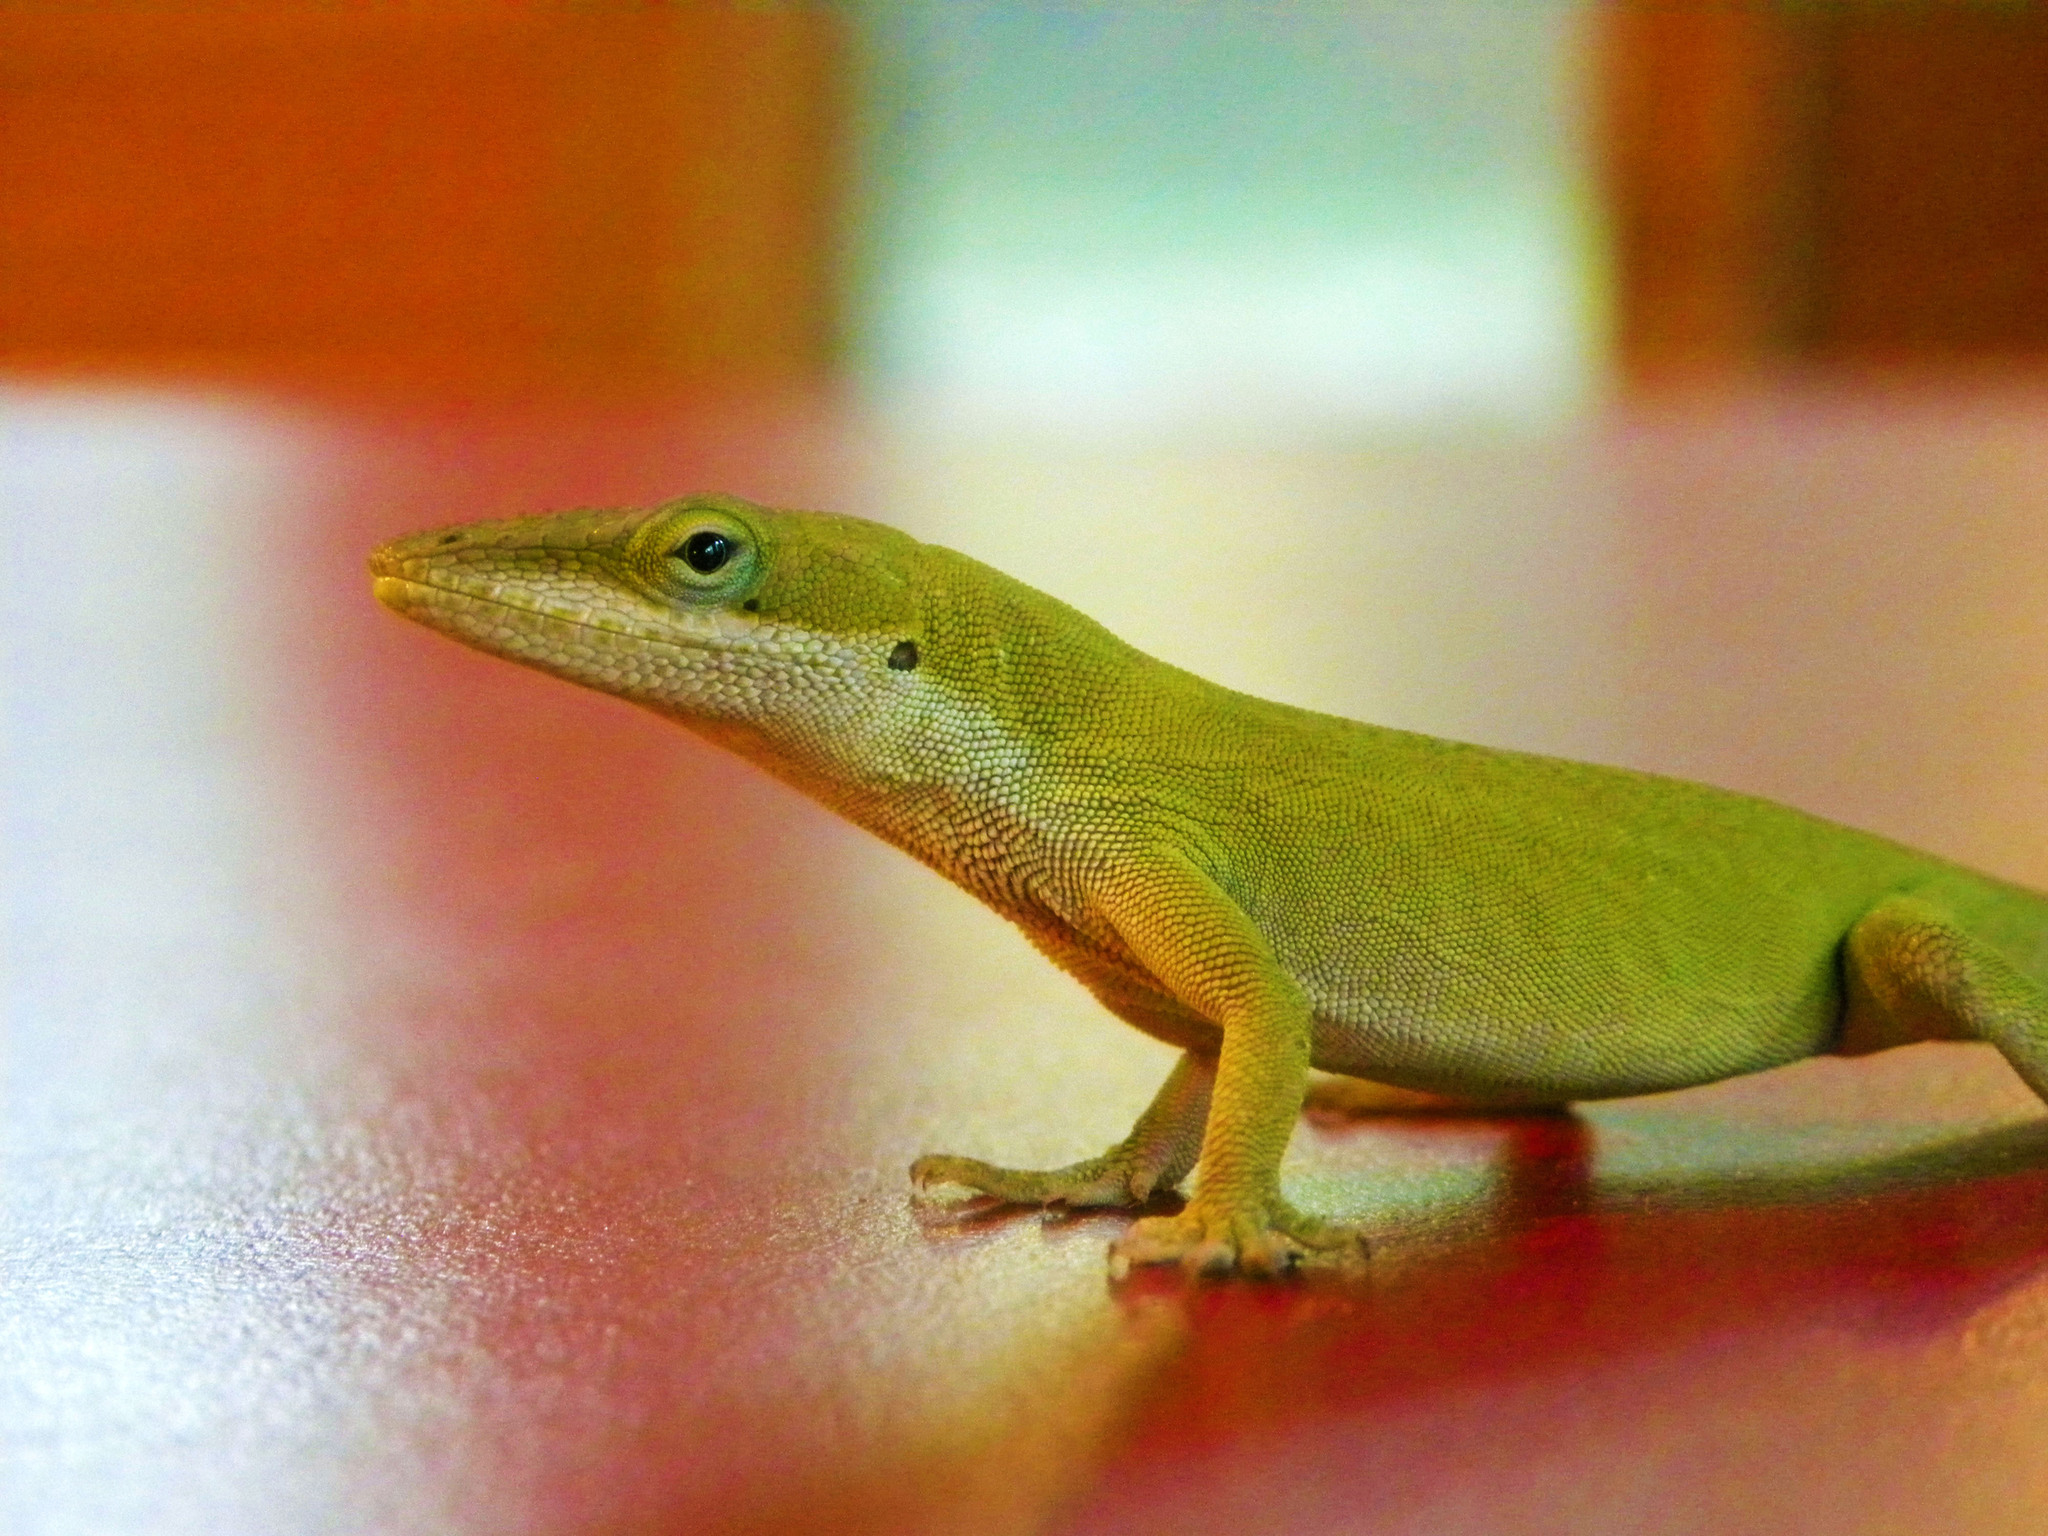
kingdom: Animalia
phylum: Chordata
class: Squamata
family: Dactyloidae
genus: Anolis
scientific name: Anolis carolinensis
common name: Green anole
